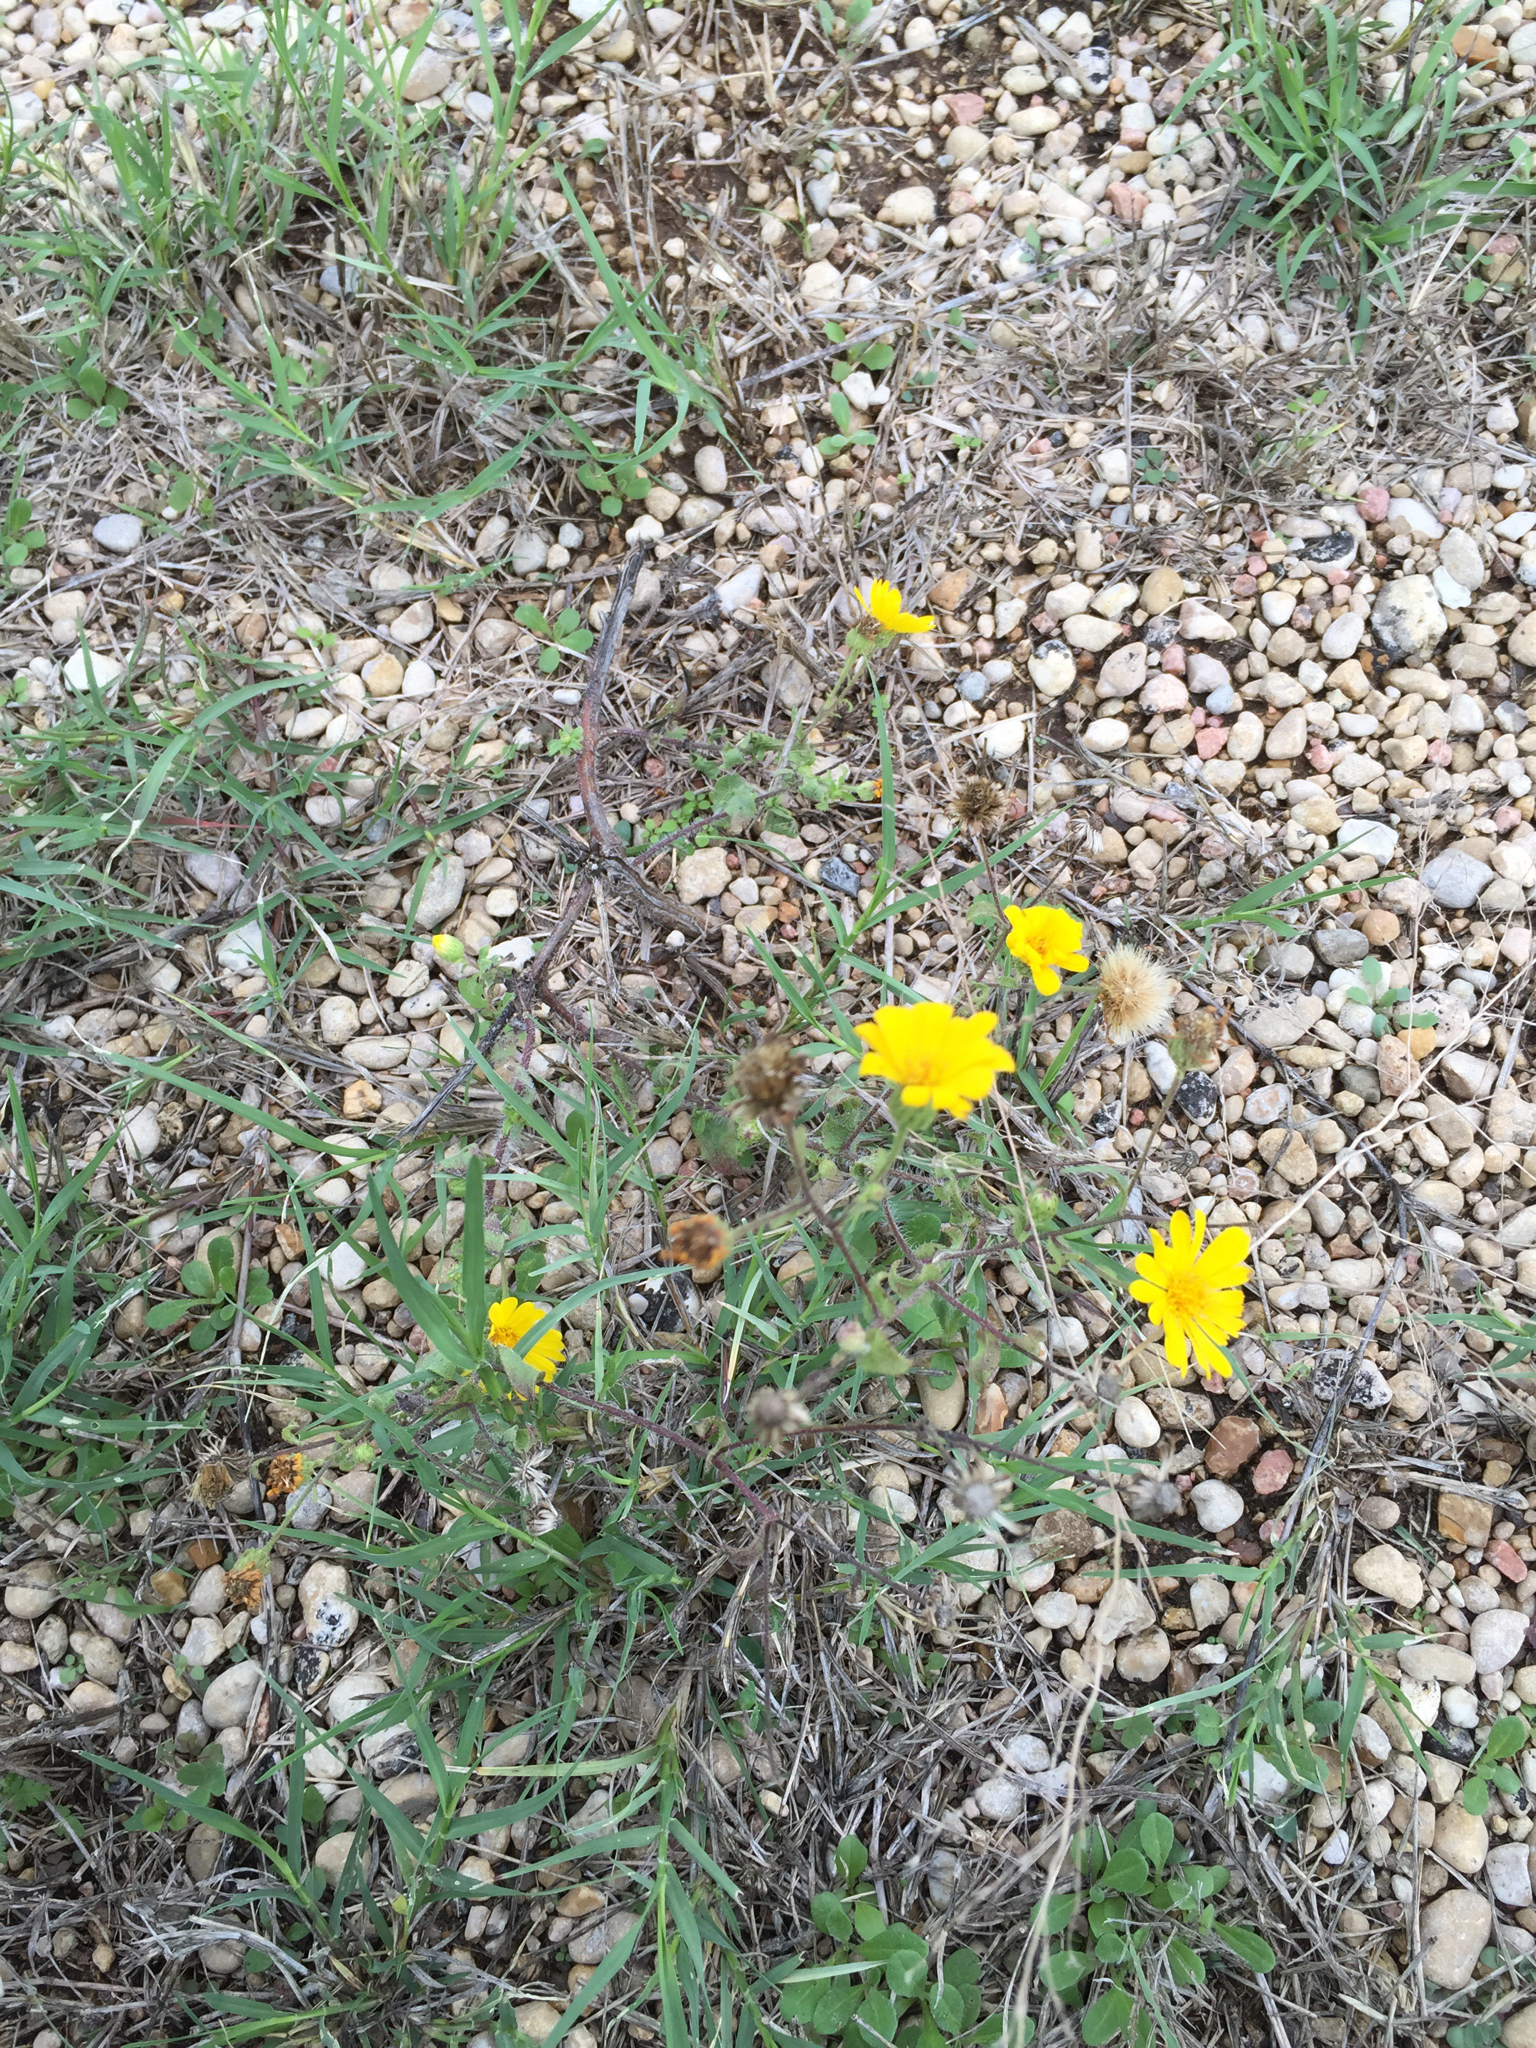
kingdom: Plantae
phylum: Tracheophyta
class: Magnoliopsida
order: Asterales
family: Asteraceae
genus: Heterotheca
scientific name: Heterotheca subaxillaris
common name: Camphorweed
